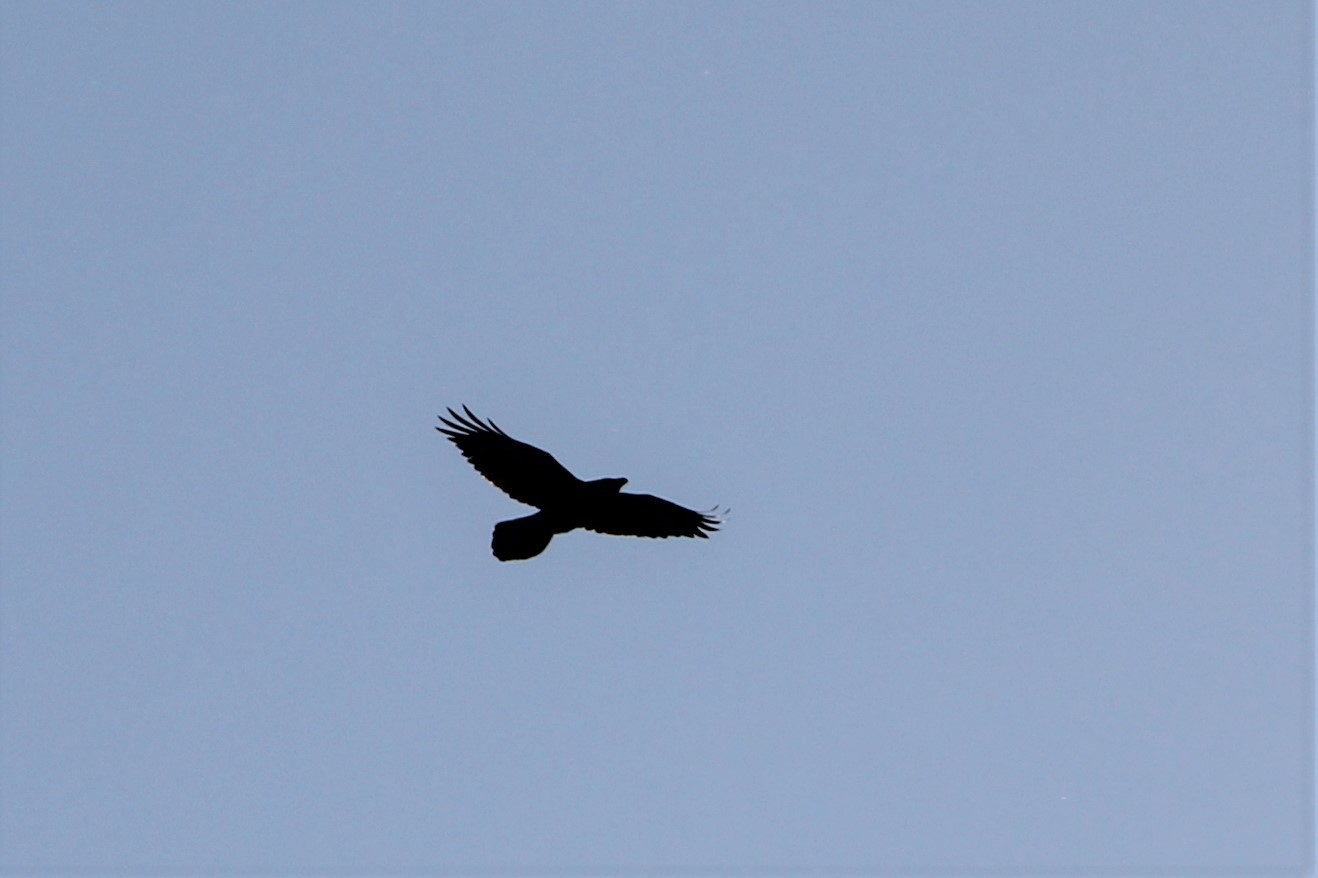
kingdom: Animalia
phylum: Chordata
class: Aves
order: Passeriformes
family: Corvidae
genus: Corvus
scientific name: Corvus corax
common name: Common raven
